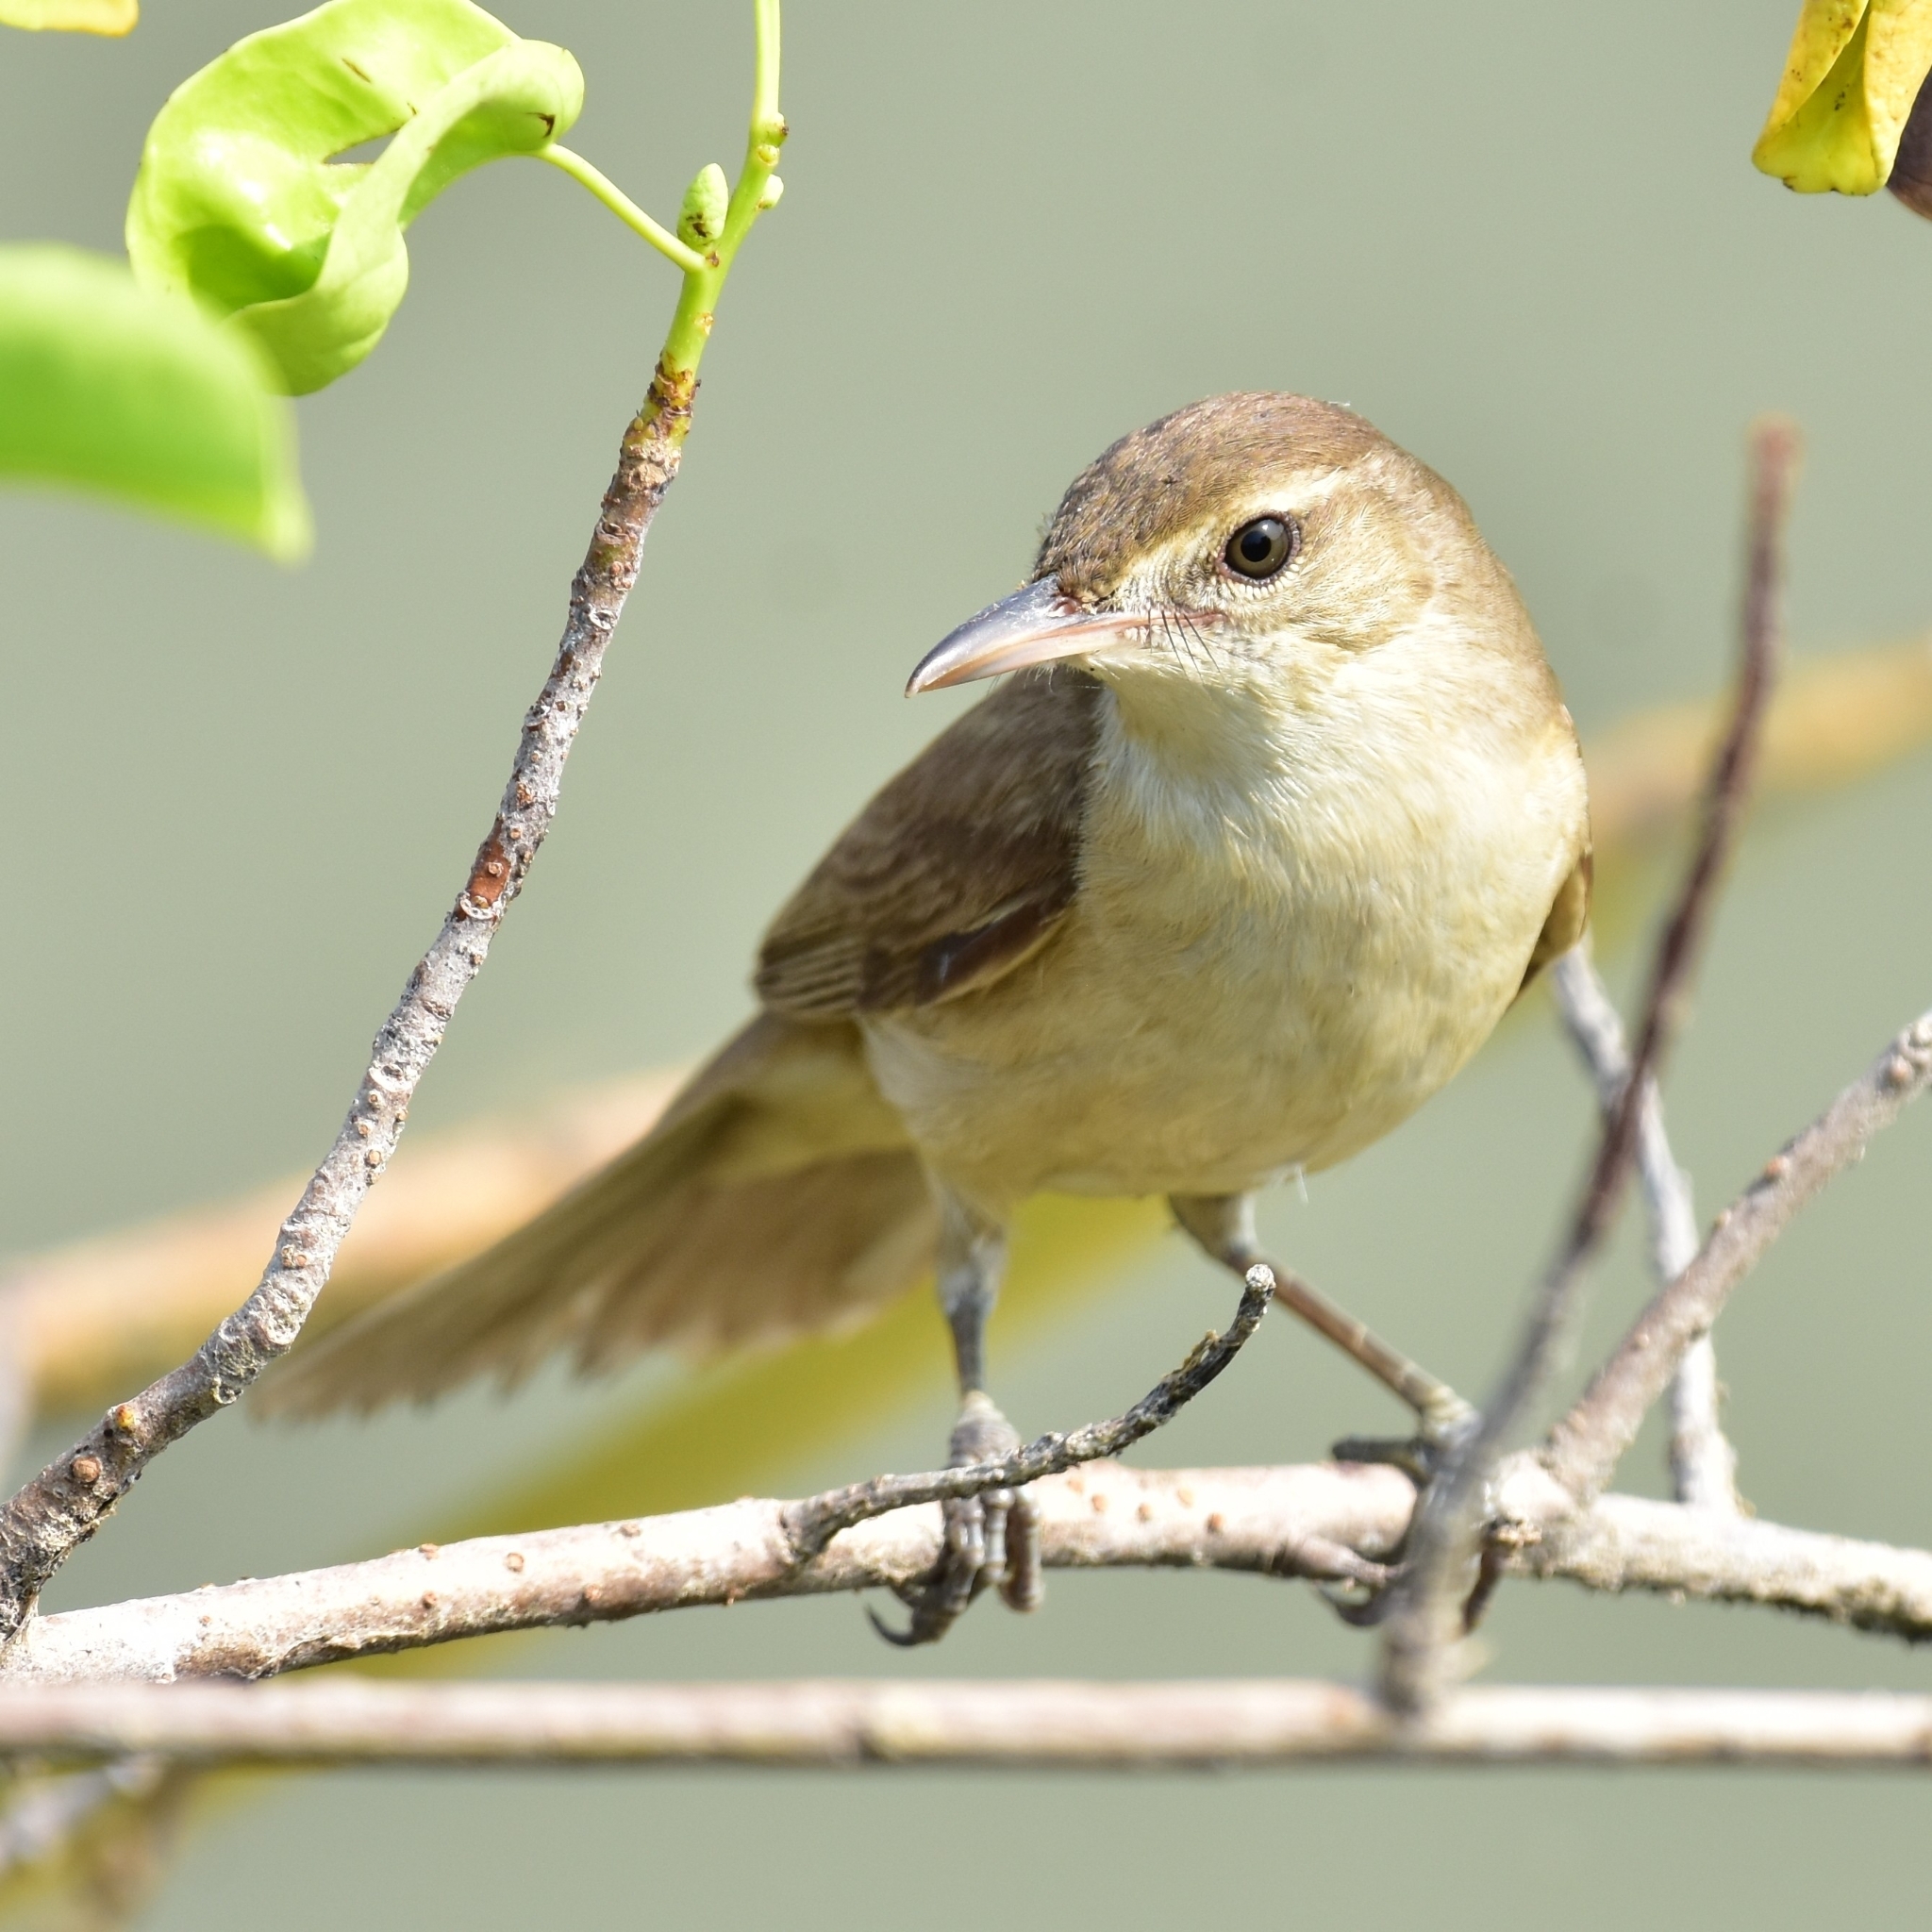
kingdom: Animalia
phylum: Chordata
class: Aves
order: Passeriformes
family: Acrocephalidae
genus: Acrocephalus
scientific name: Acrocephalus stentoreus
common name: Clamorous reed warbler
